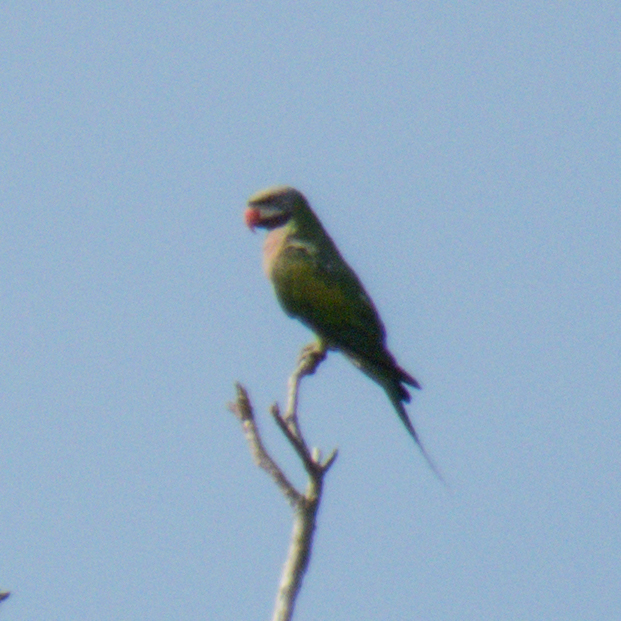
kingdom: Animalia
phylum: Chordata
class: Aves
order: Psittaciformes
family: Psittacidae
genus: Psittacula
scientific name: Psittacula alexandri
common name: Red-breasted parakeet
